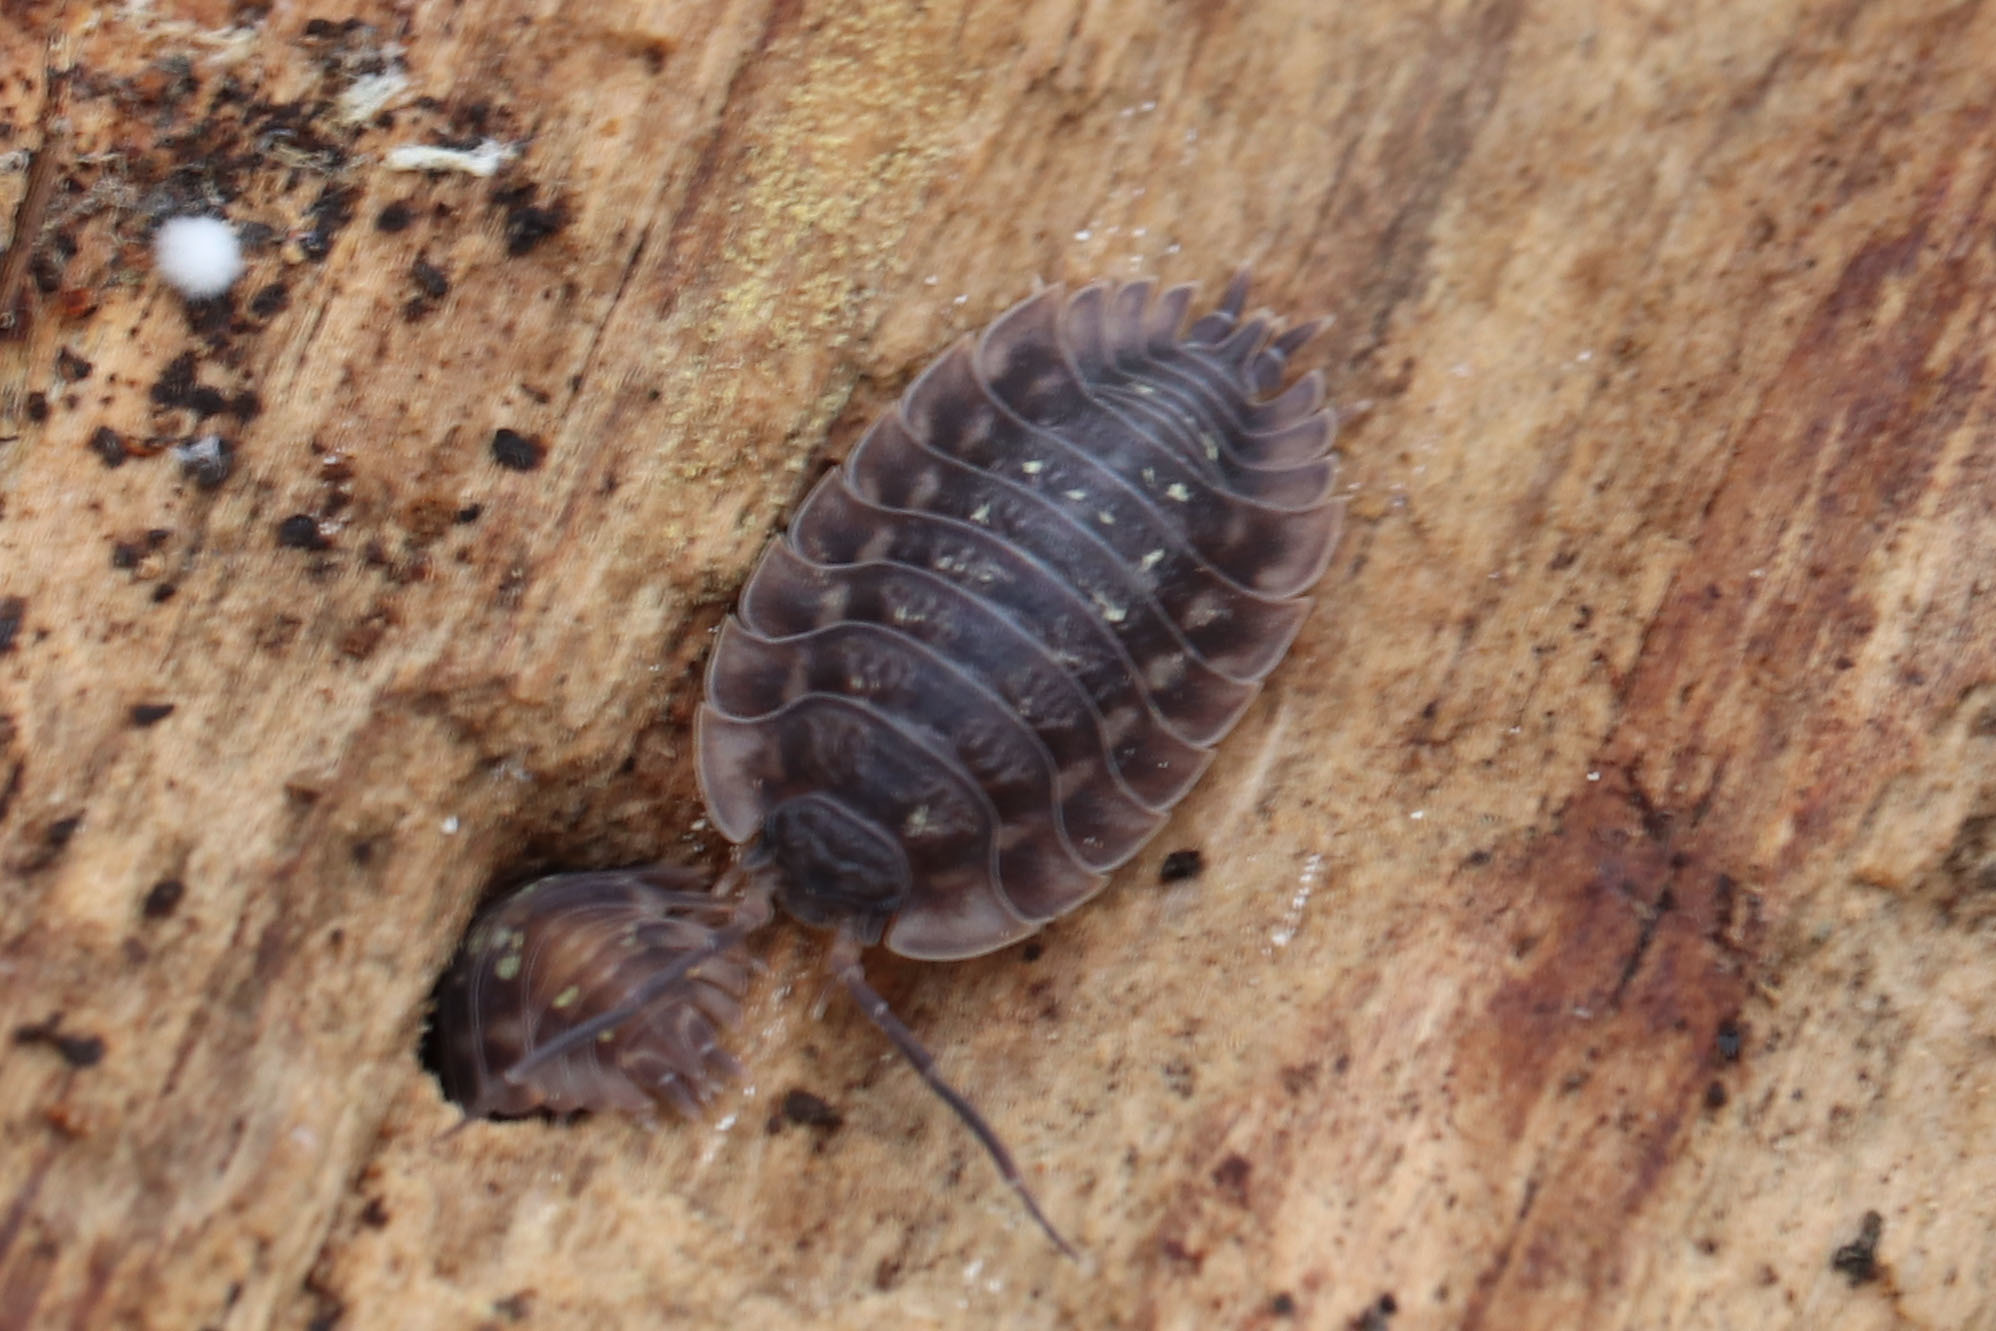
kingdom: Animalia
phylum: Arthropoda
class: Malacostraca
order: Isopoda
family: Oniscidae
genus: Oniscus
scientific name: Oniscus asellus
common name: Common shiny woodlouse
